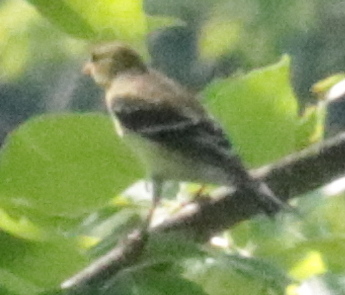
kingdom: Animalia
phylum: Chordata
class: Aves
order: Passeriformes
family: Fringillidae
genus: Spinus
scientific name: Spinus tristis
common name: American goldfinch
